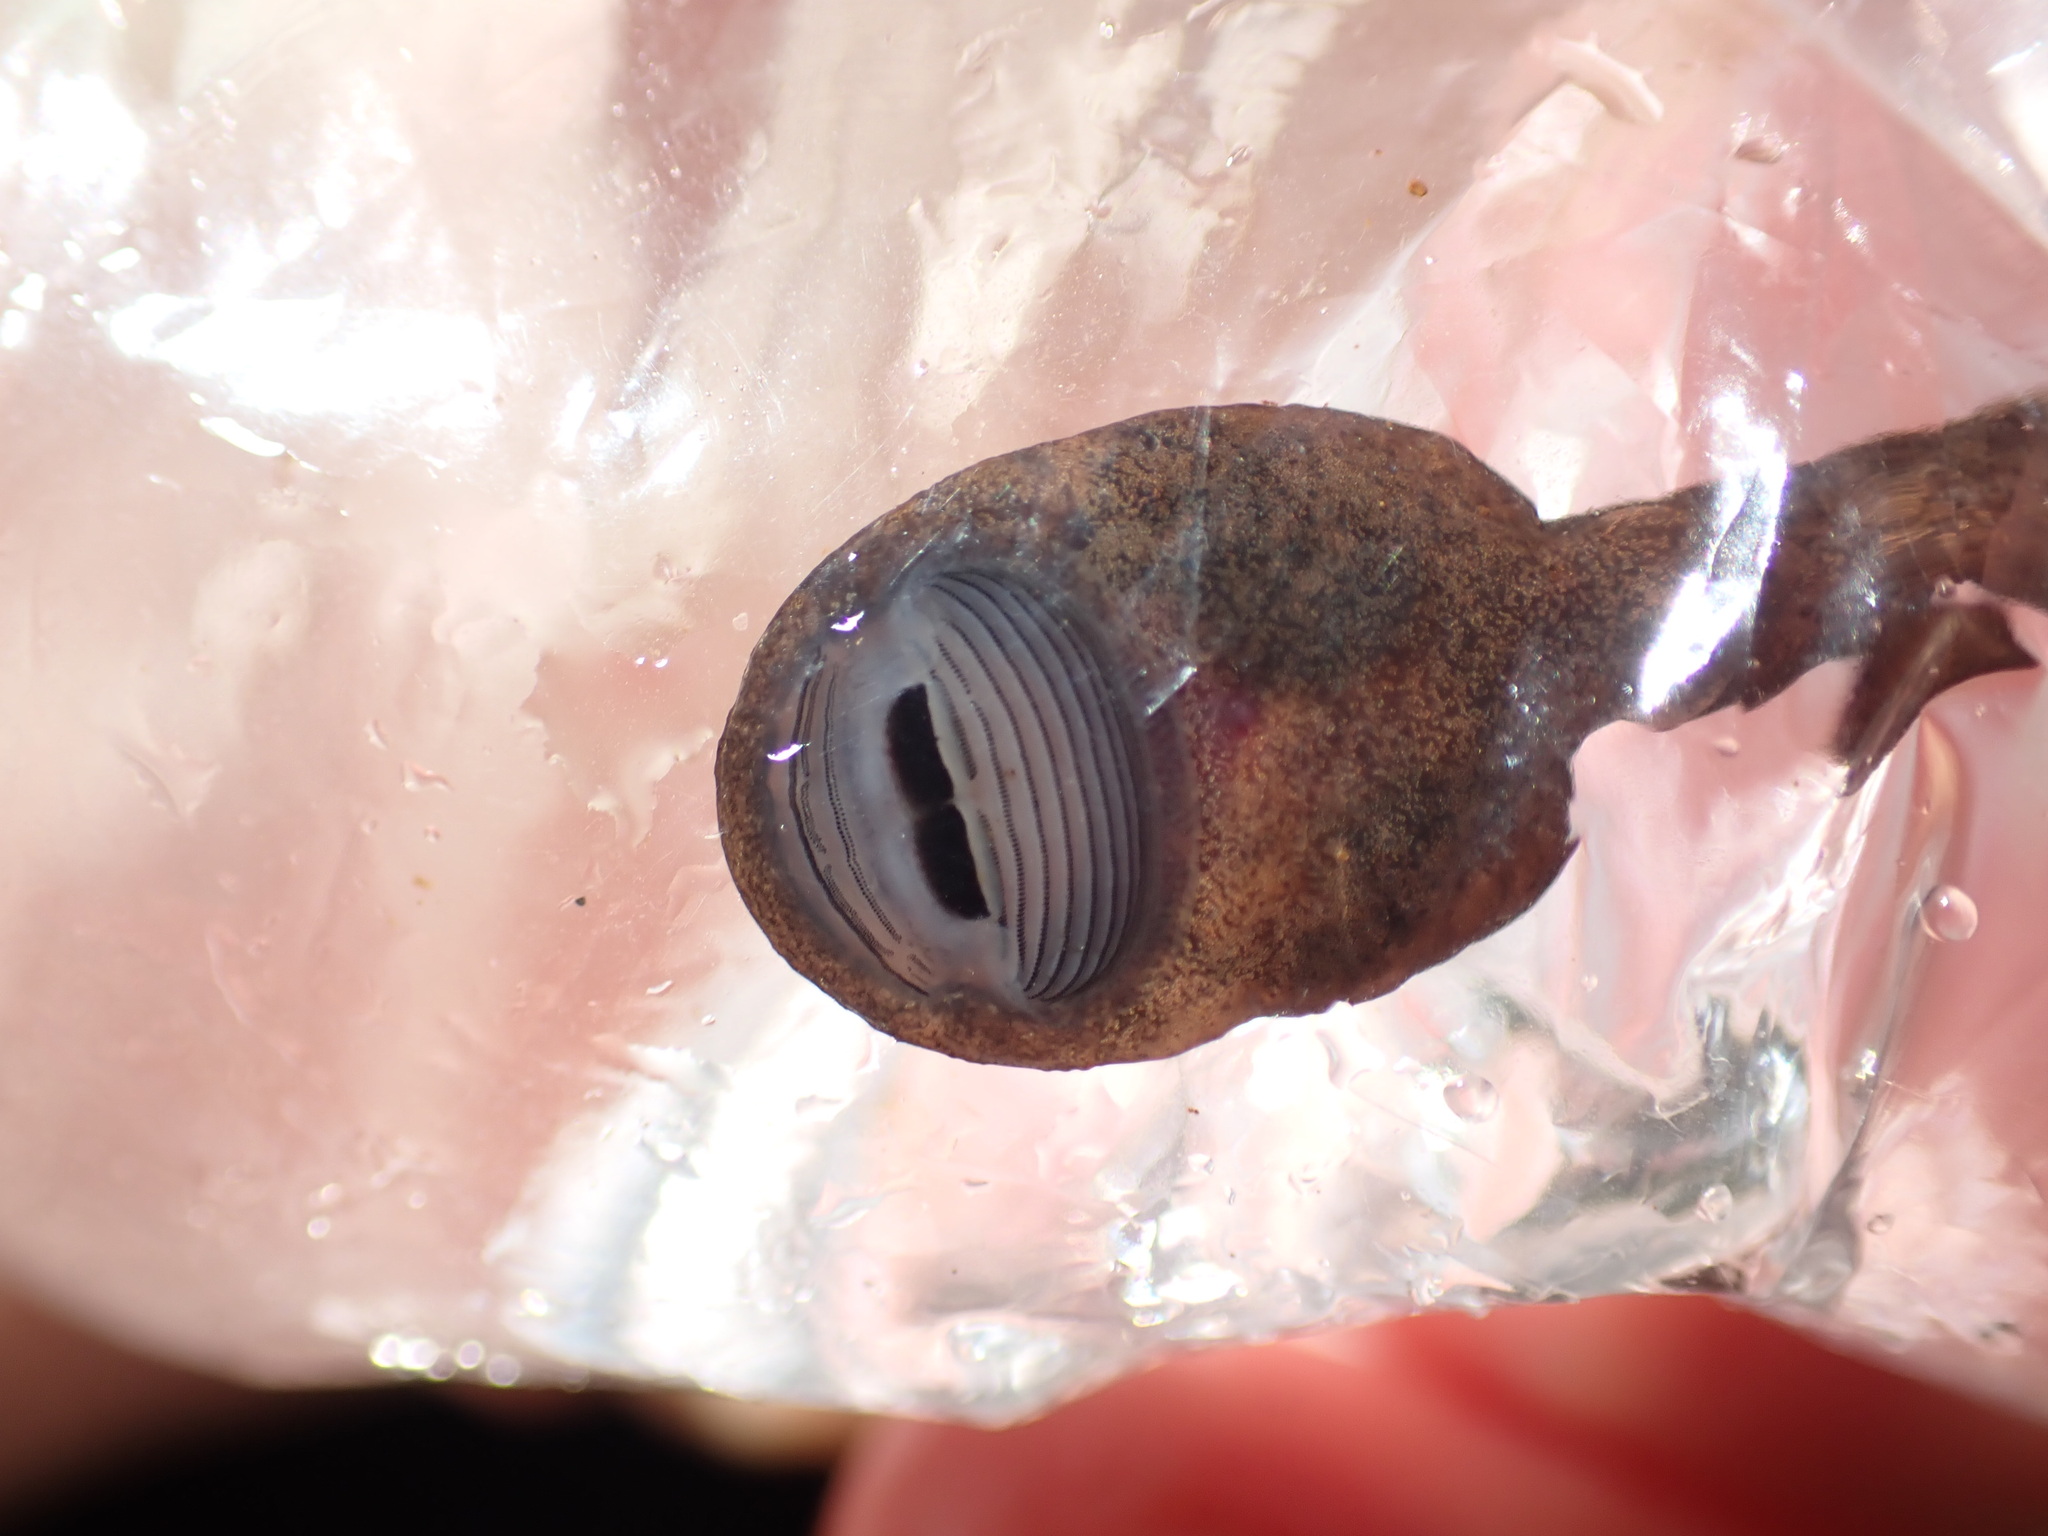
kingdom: Animalia
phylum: Chordata
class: Amphibia
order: Anura
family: Ascaphidae
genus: Ascaphus
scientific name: Ascaphus truei
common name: Tailed frog
